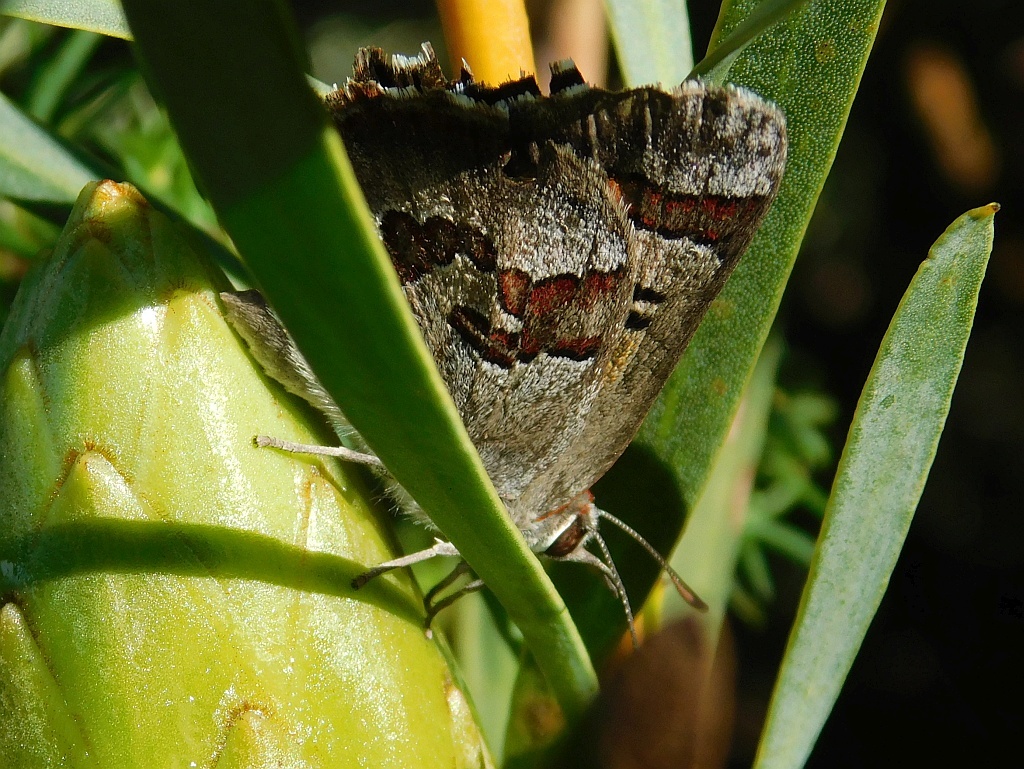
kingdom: Animalia
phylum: Arthropoda
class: Insecta
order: Lepidoptera
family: Lycaenidae
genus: Capys
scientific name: Capys alpheus
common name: Orange-banded protea butterfly
